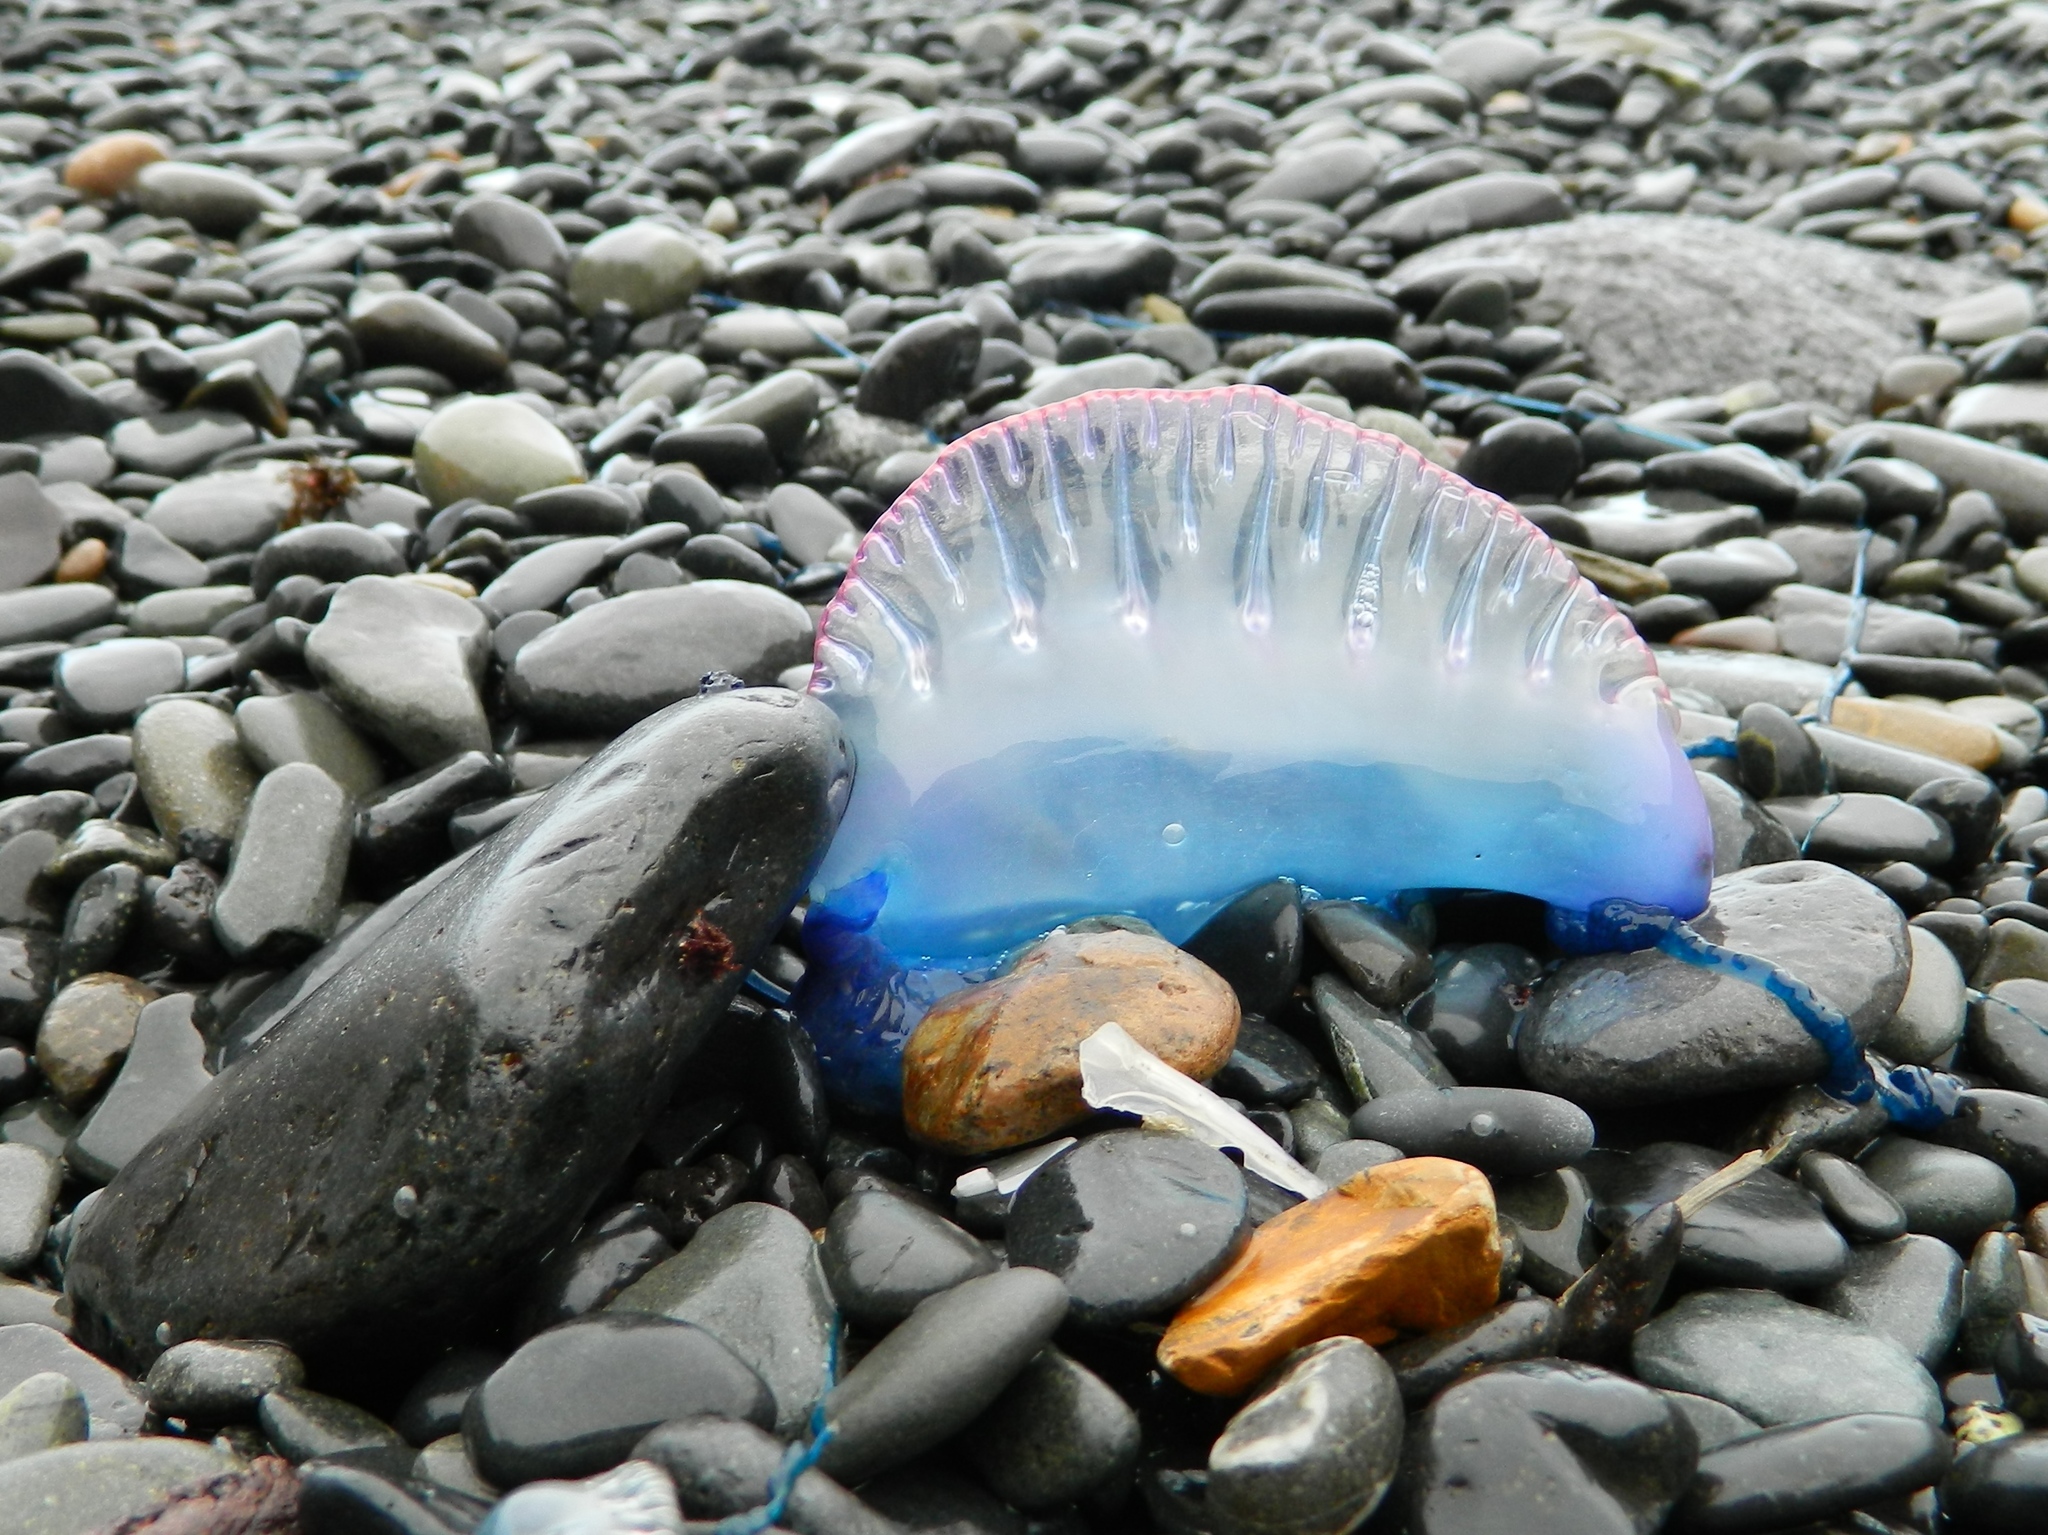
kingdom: Animalia
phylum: Cnidaria
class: Hydrozoa
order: Siphonophorae
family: Physaliidae
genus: Physalia
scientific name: Physalia physalis
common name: Portuguese man-of-war
